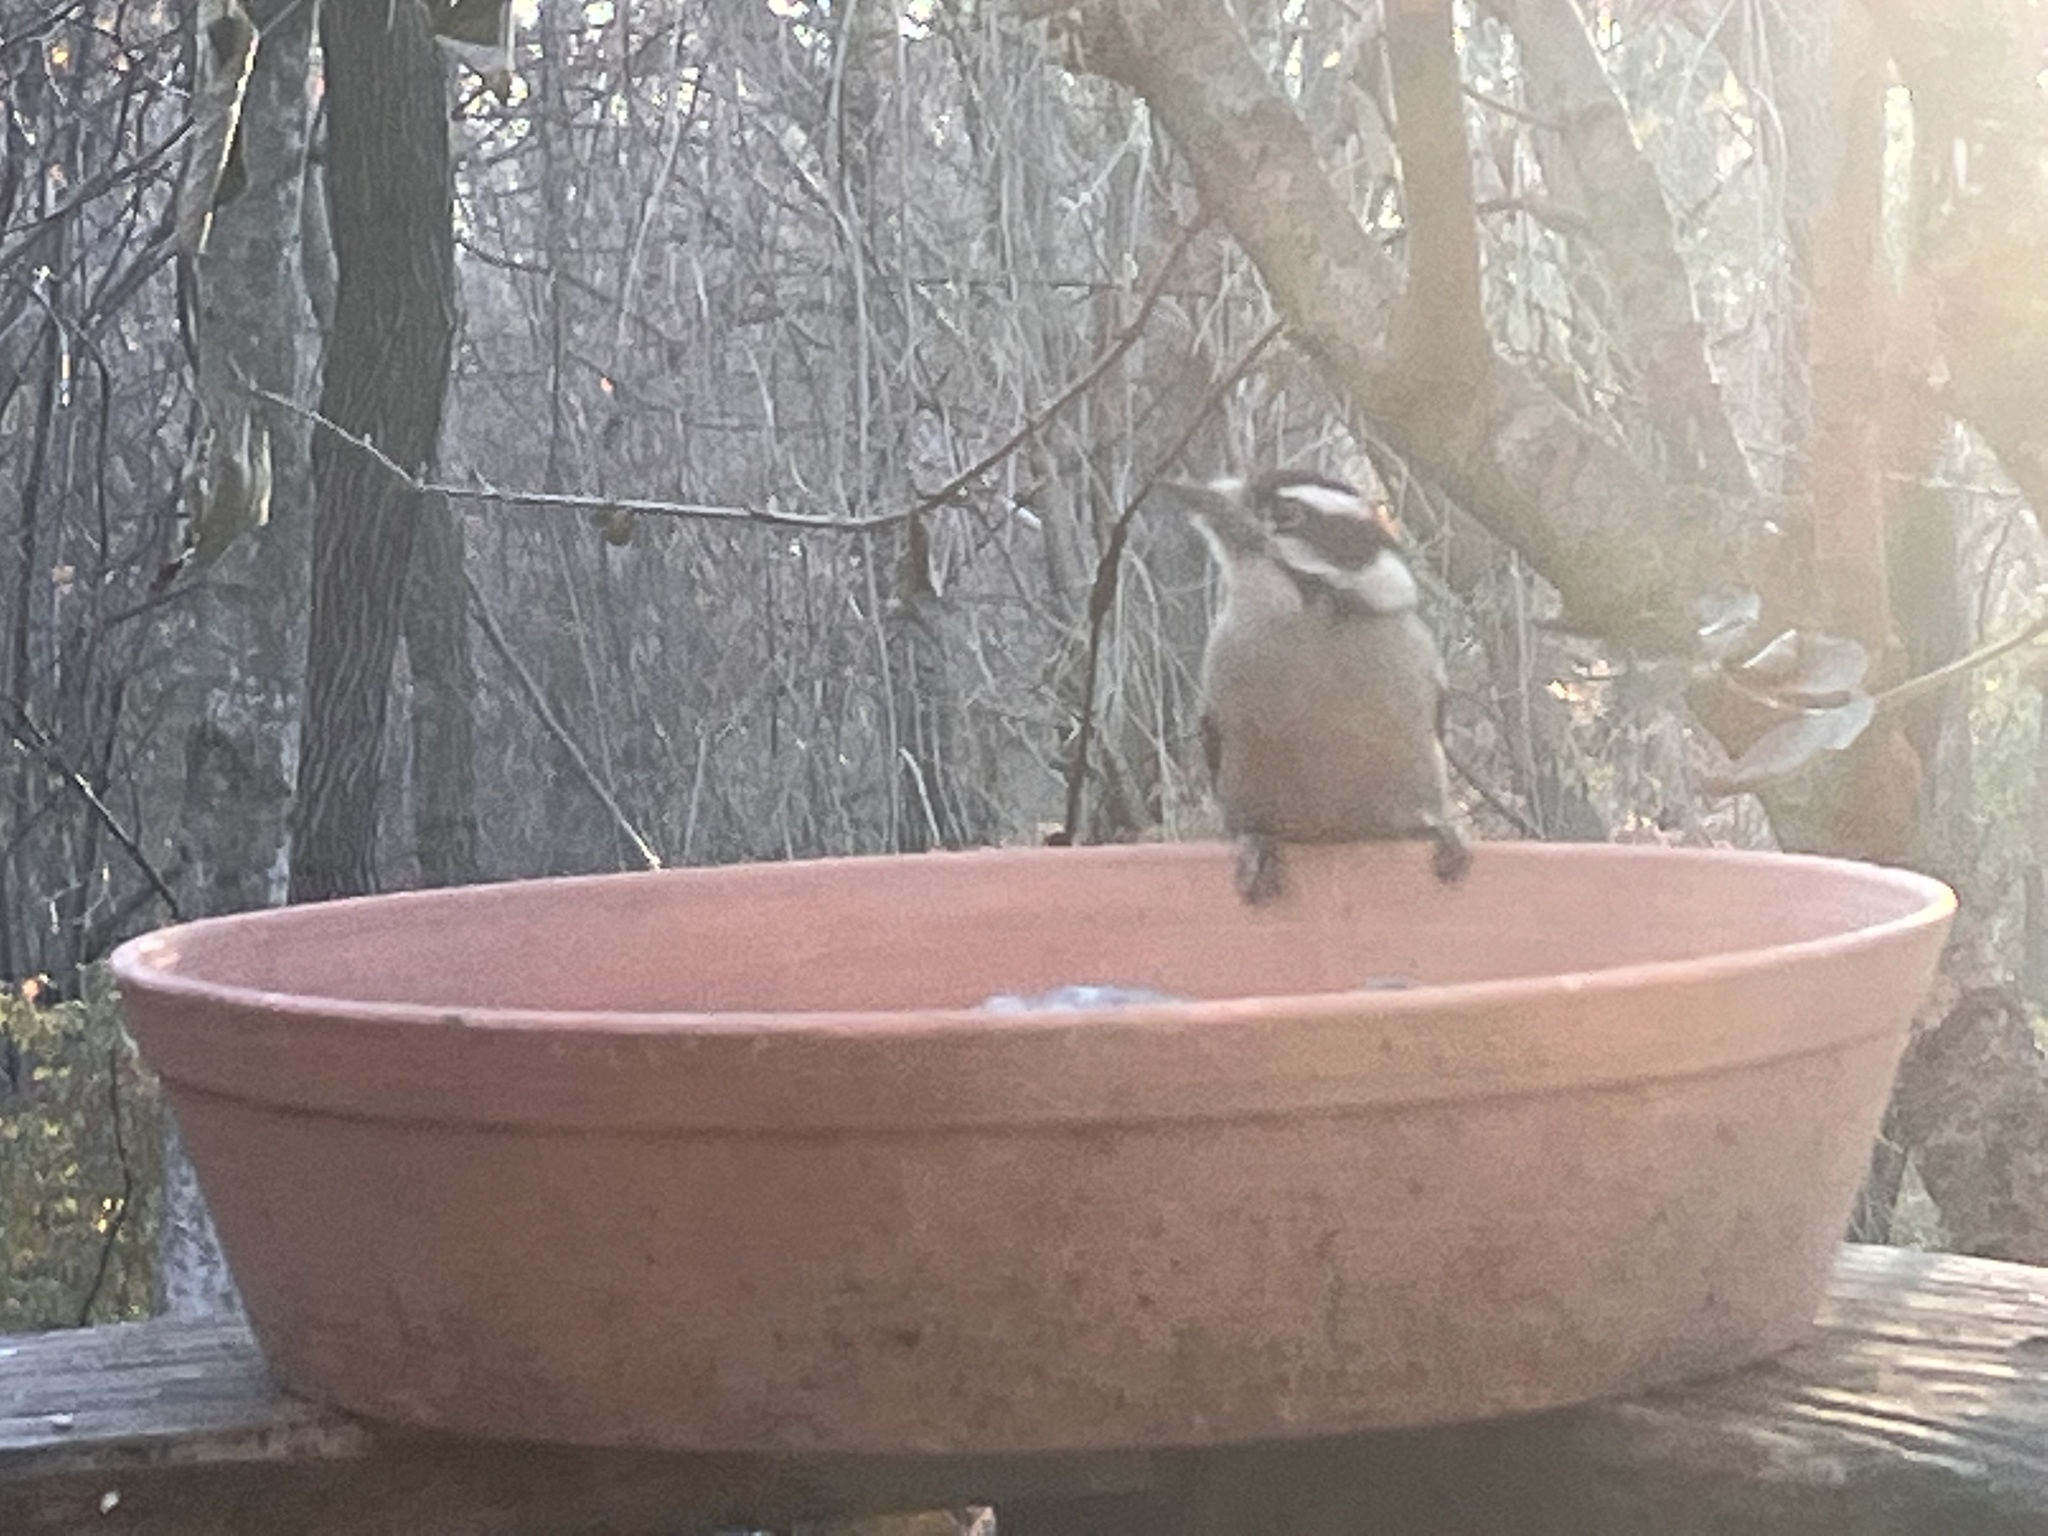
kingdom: Animalia
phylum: Chordata
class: Aves
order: Piciformes
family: Picidae
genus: Dryobates
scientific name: Dryobates pubescens
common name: Downy woodpecker
